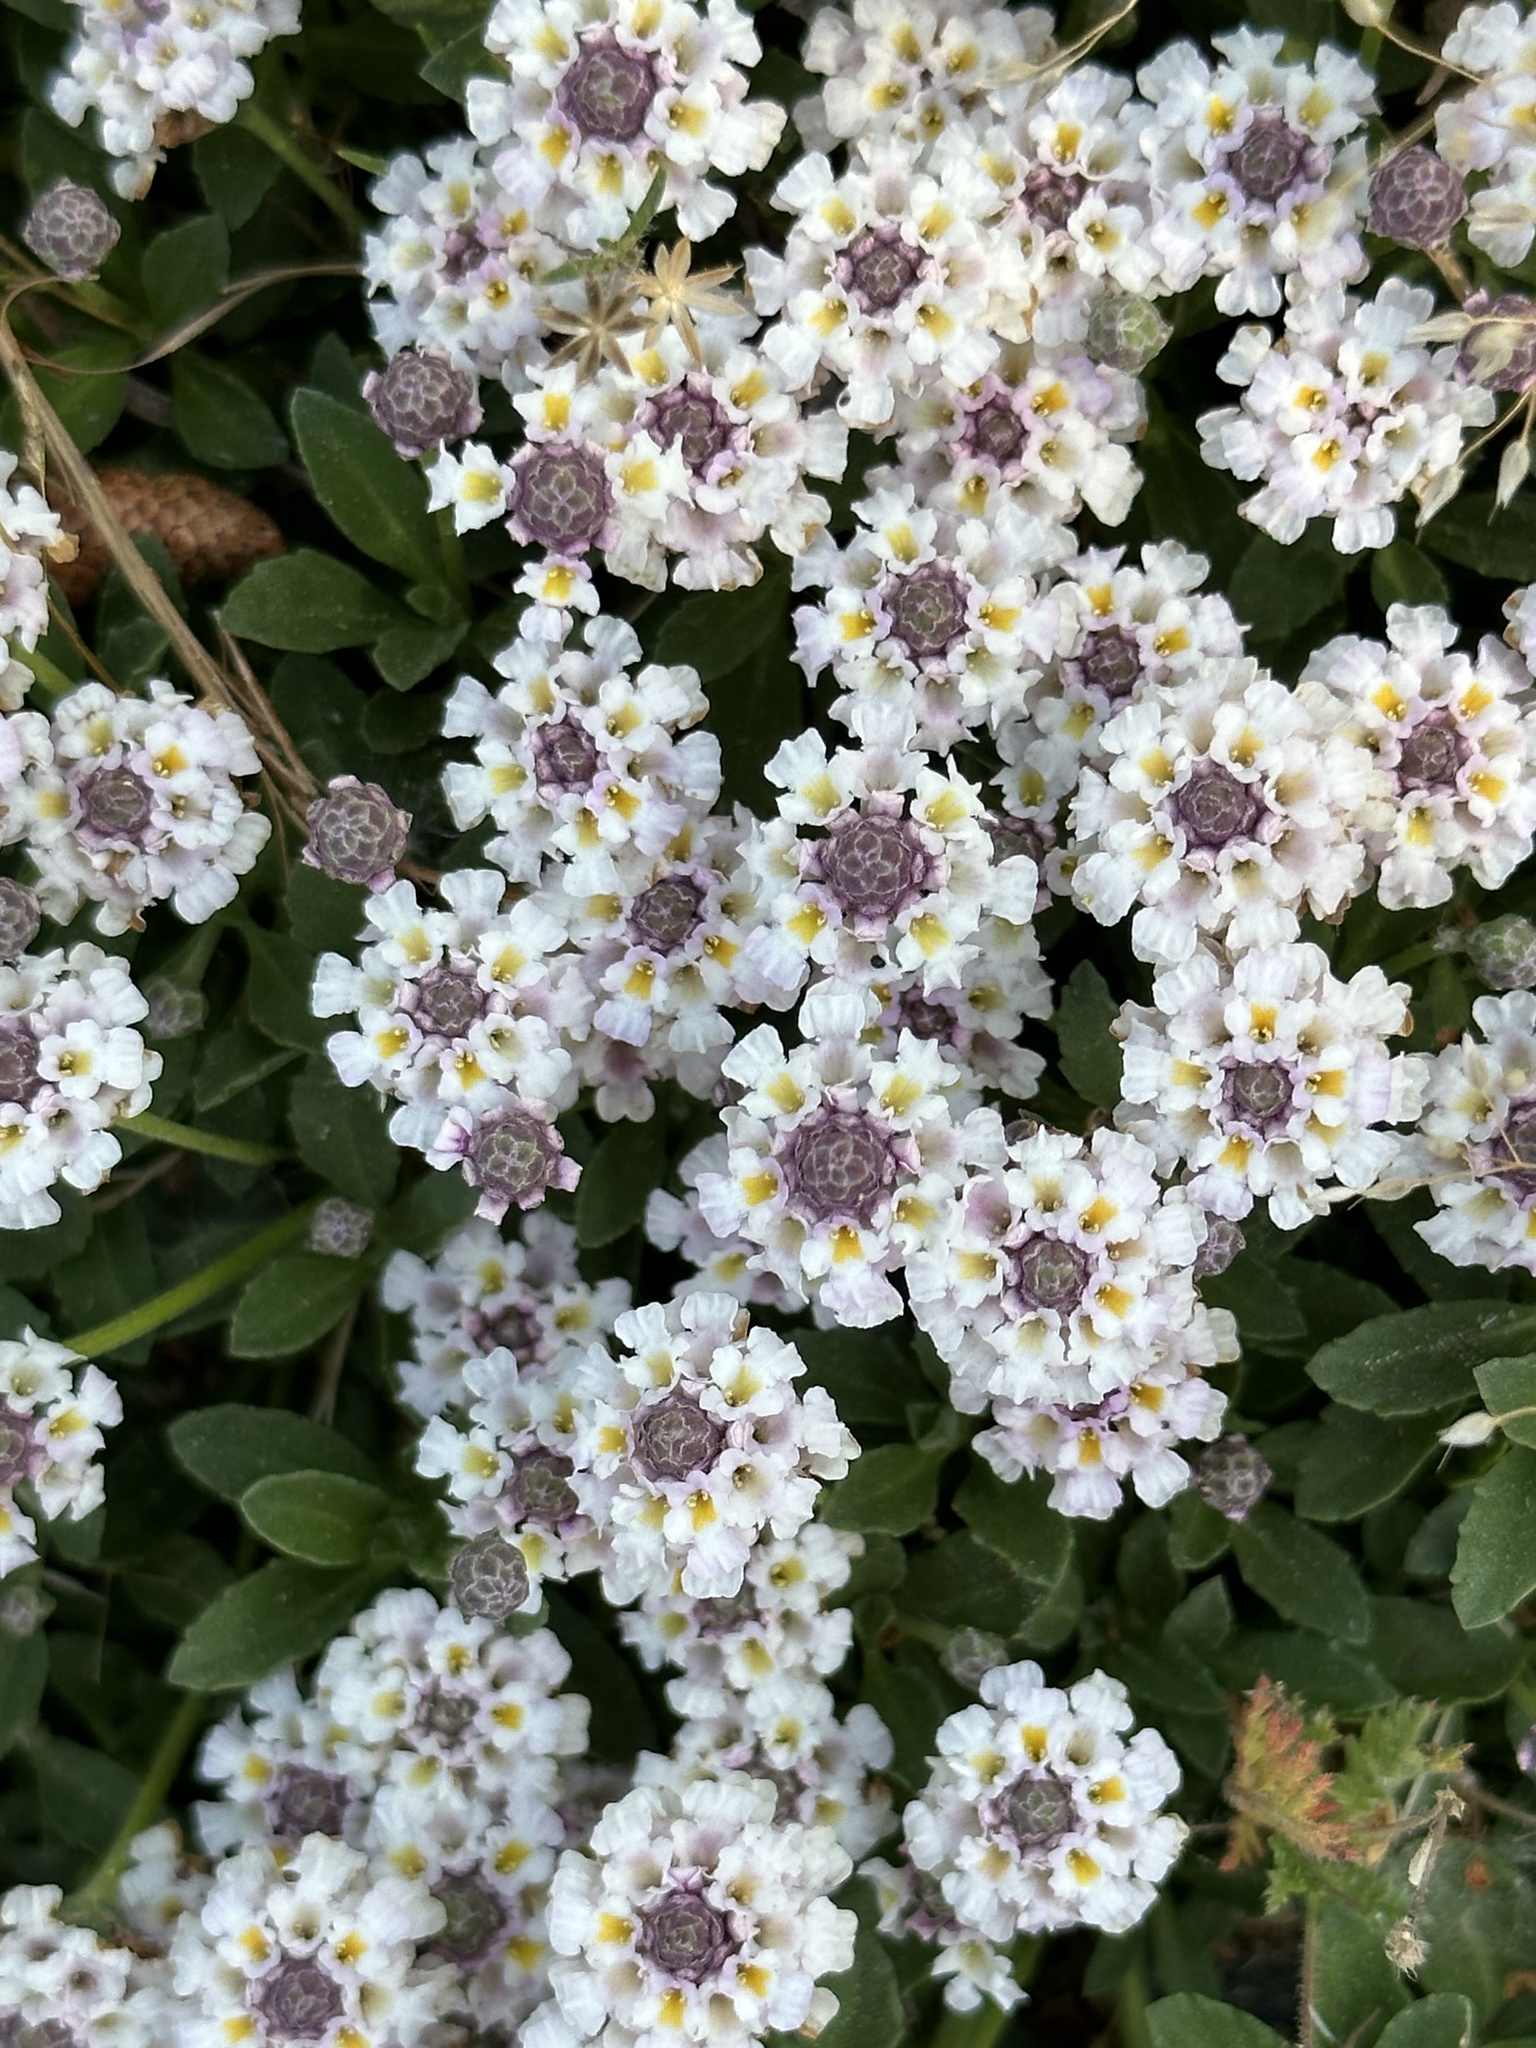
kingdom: Plantae
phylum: Tracheophyta
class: Magnoliopsida
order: Lamiales
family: Verbenaceae
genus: Phyla
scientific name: Phyla nodiflora
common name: Frogfruit
